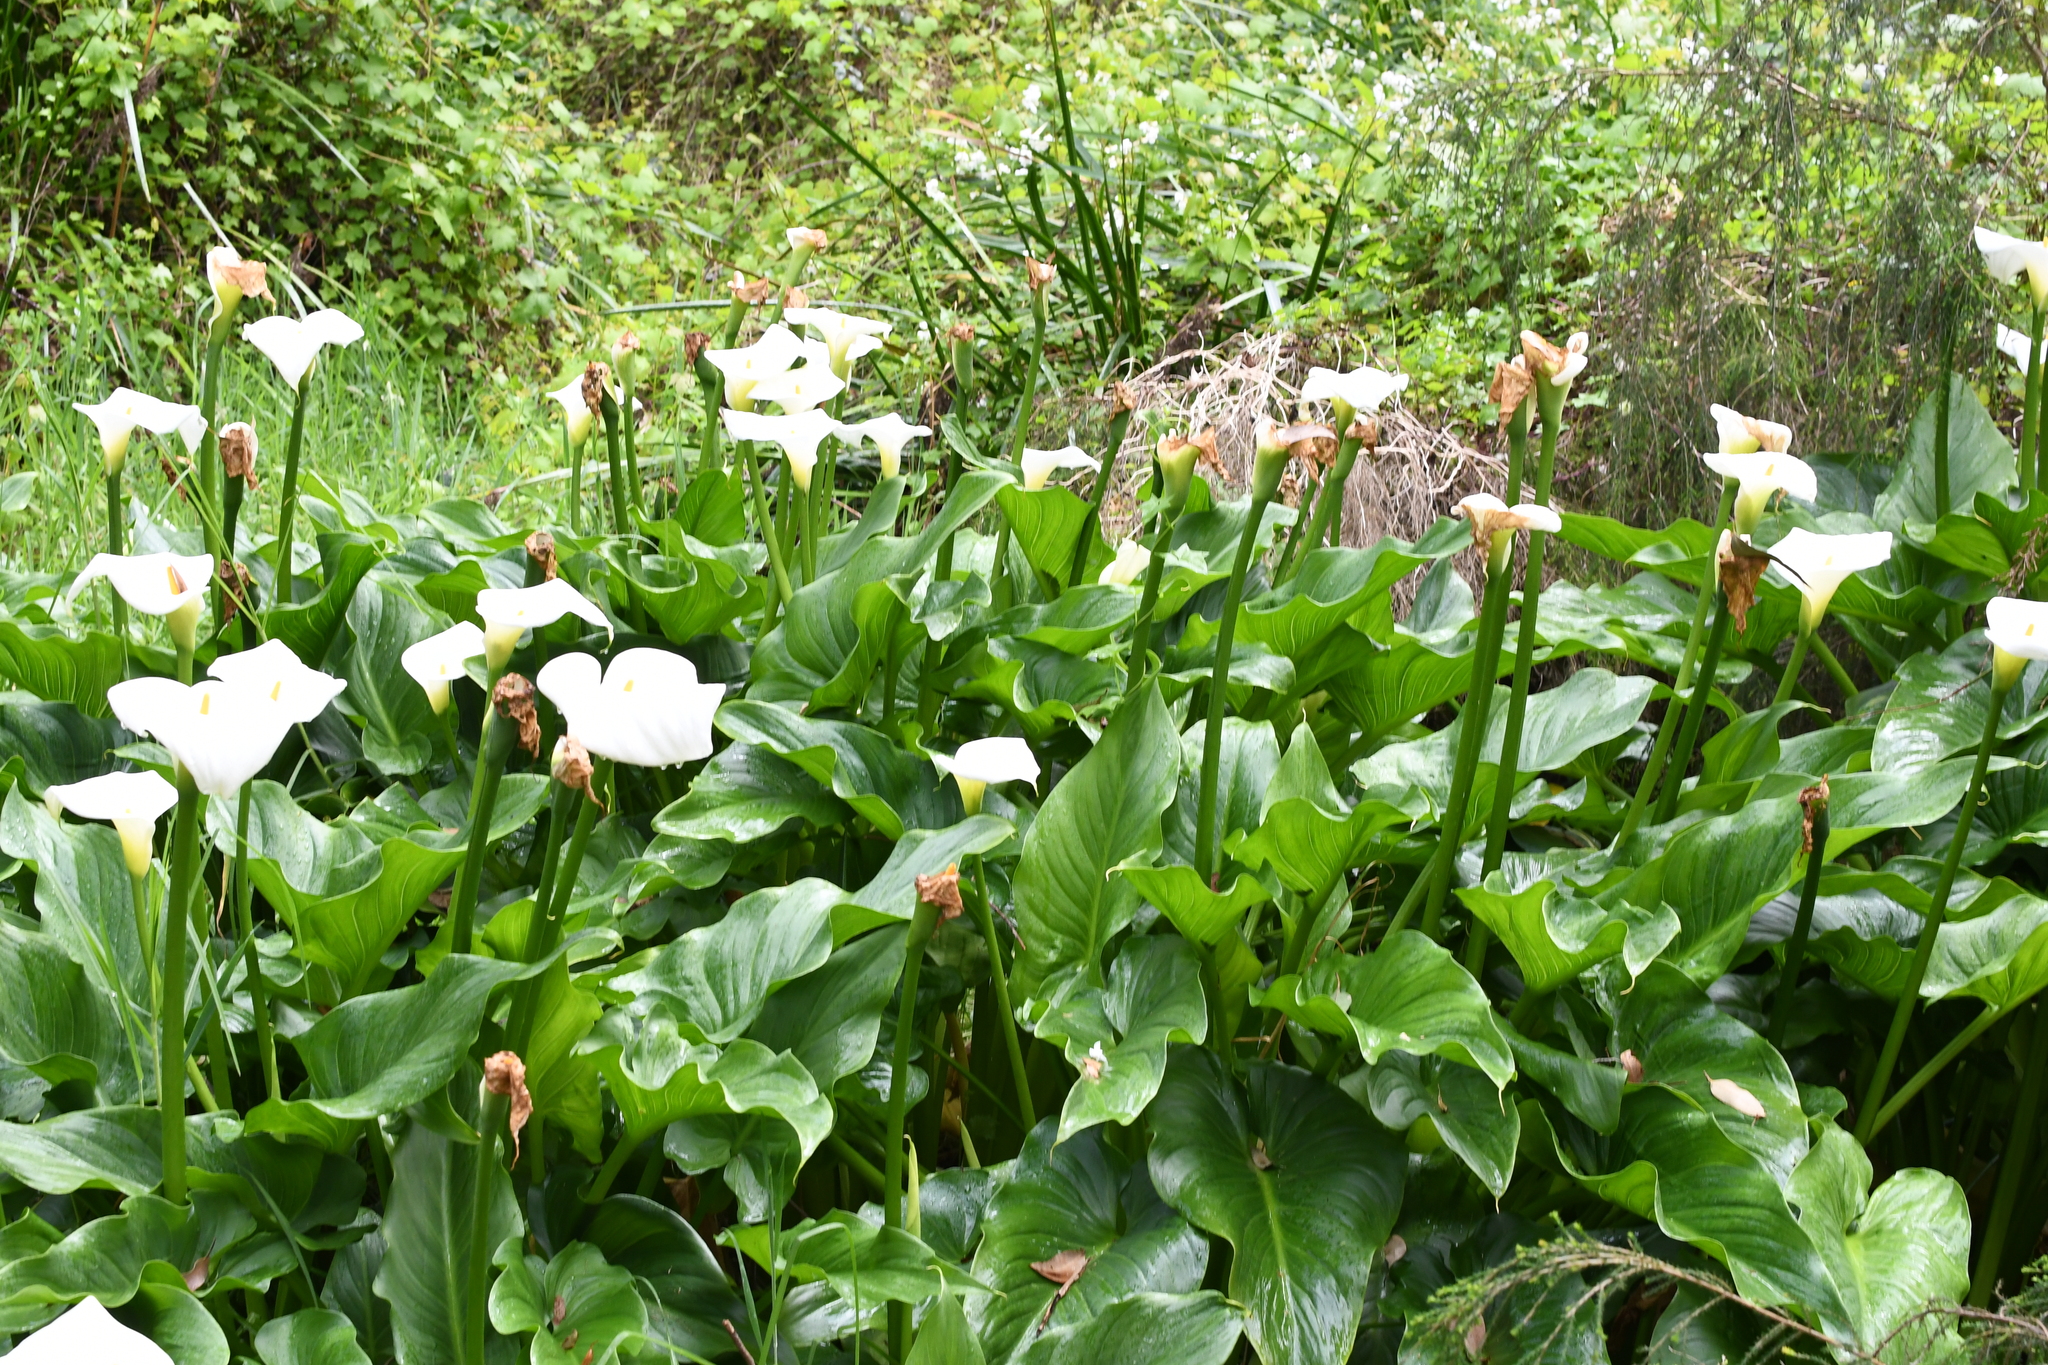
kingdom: Plantae
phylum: Tracheophyta
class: Liliopsida
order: Alismatales
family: Araceae
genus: Zantedeschia
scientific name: Zantedeschia aethiopica
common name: Altar-lily
